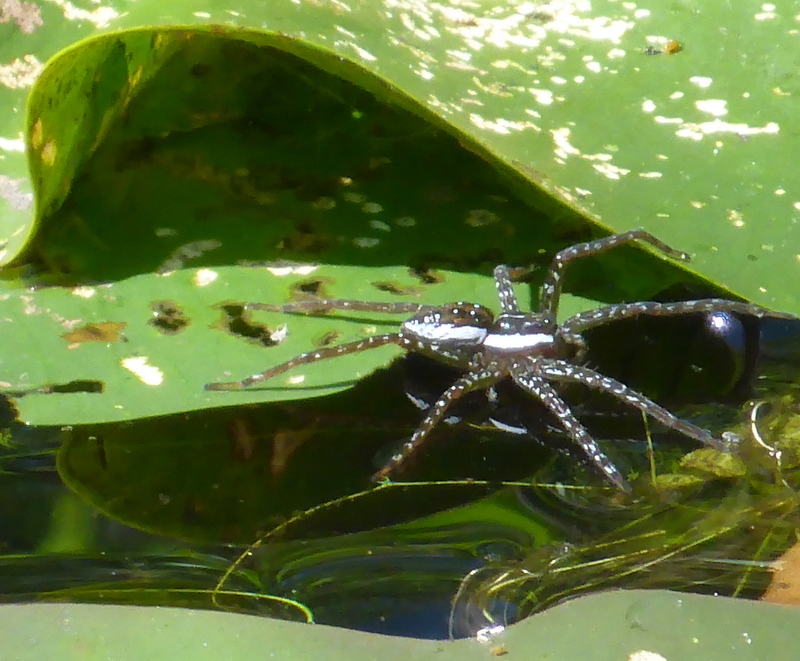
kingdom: Animalia
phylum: Arthropoda
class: Arachnida
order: Araneae
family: Pisauridae
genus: Dolomedes
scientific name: Dolomedes triton
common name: Six-spotted fishing spider
